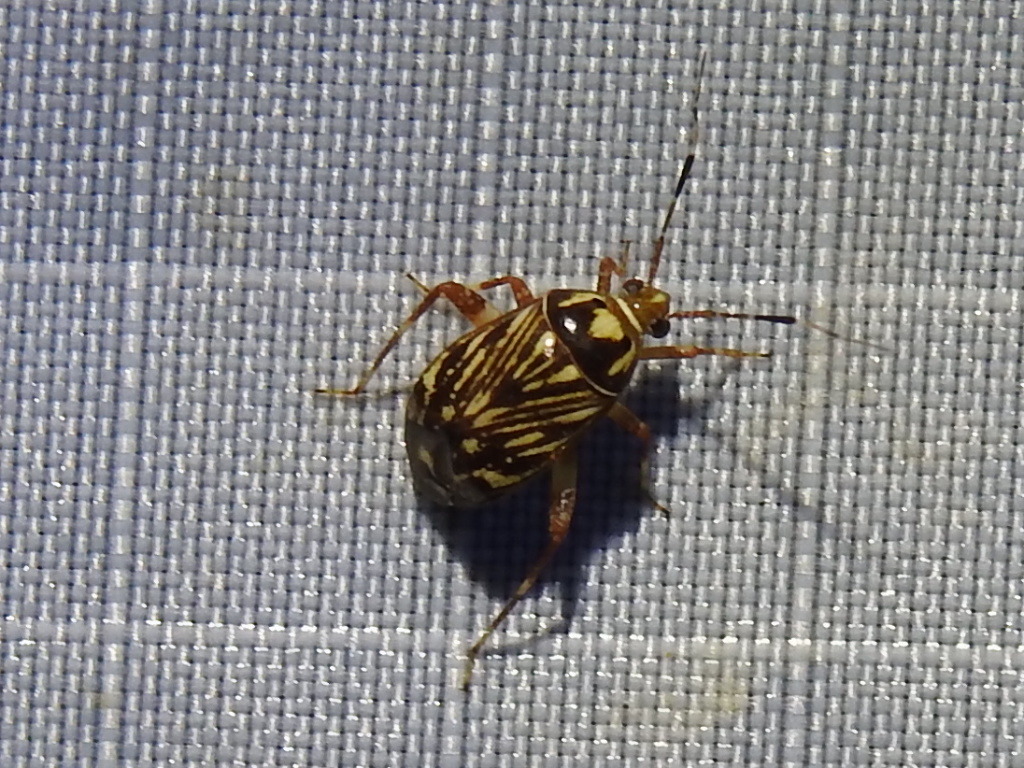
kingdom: Animalia
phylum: Arthropoda
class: Insecta
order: Hemiptera
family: Miridae
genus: Taedia
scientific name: Taedia virgulata
